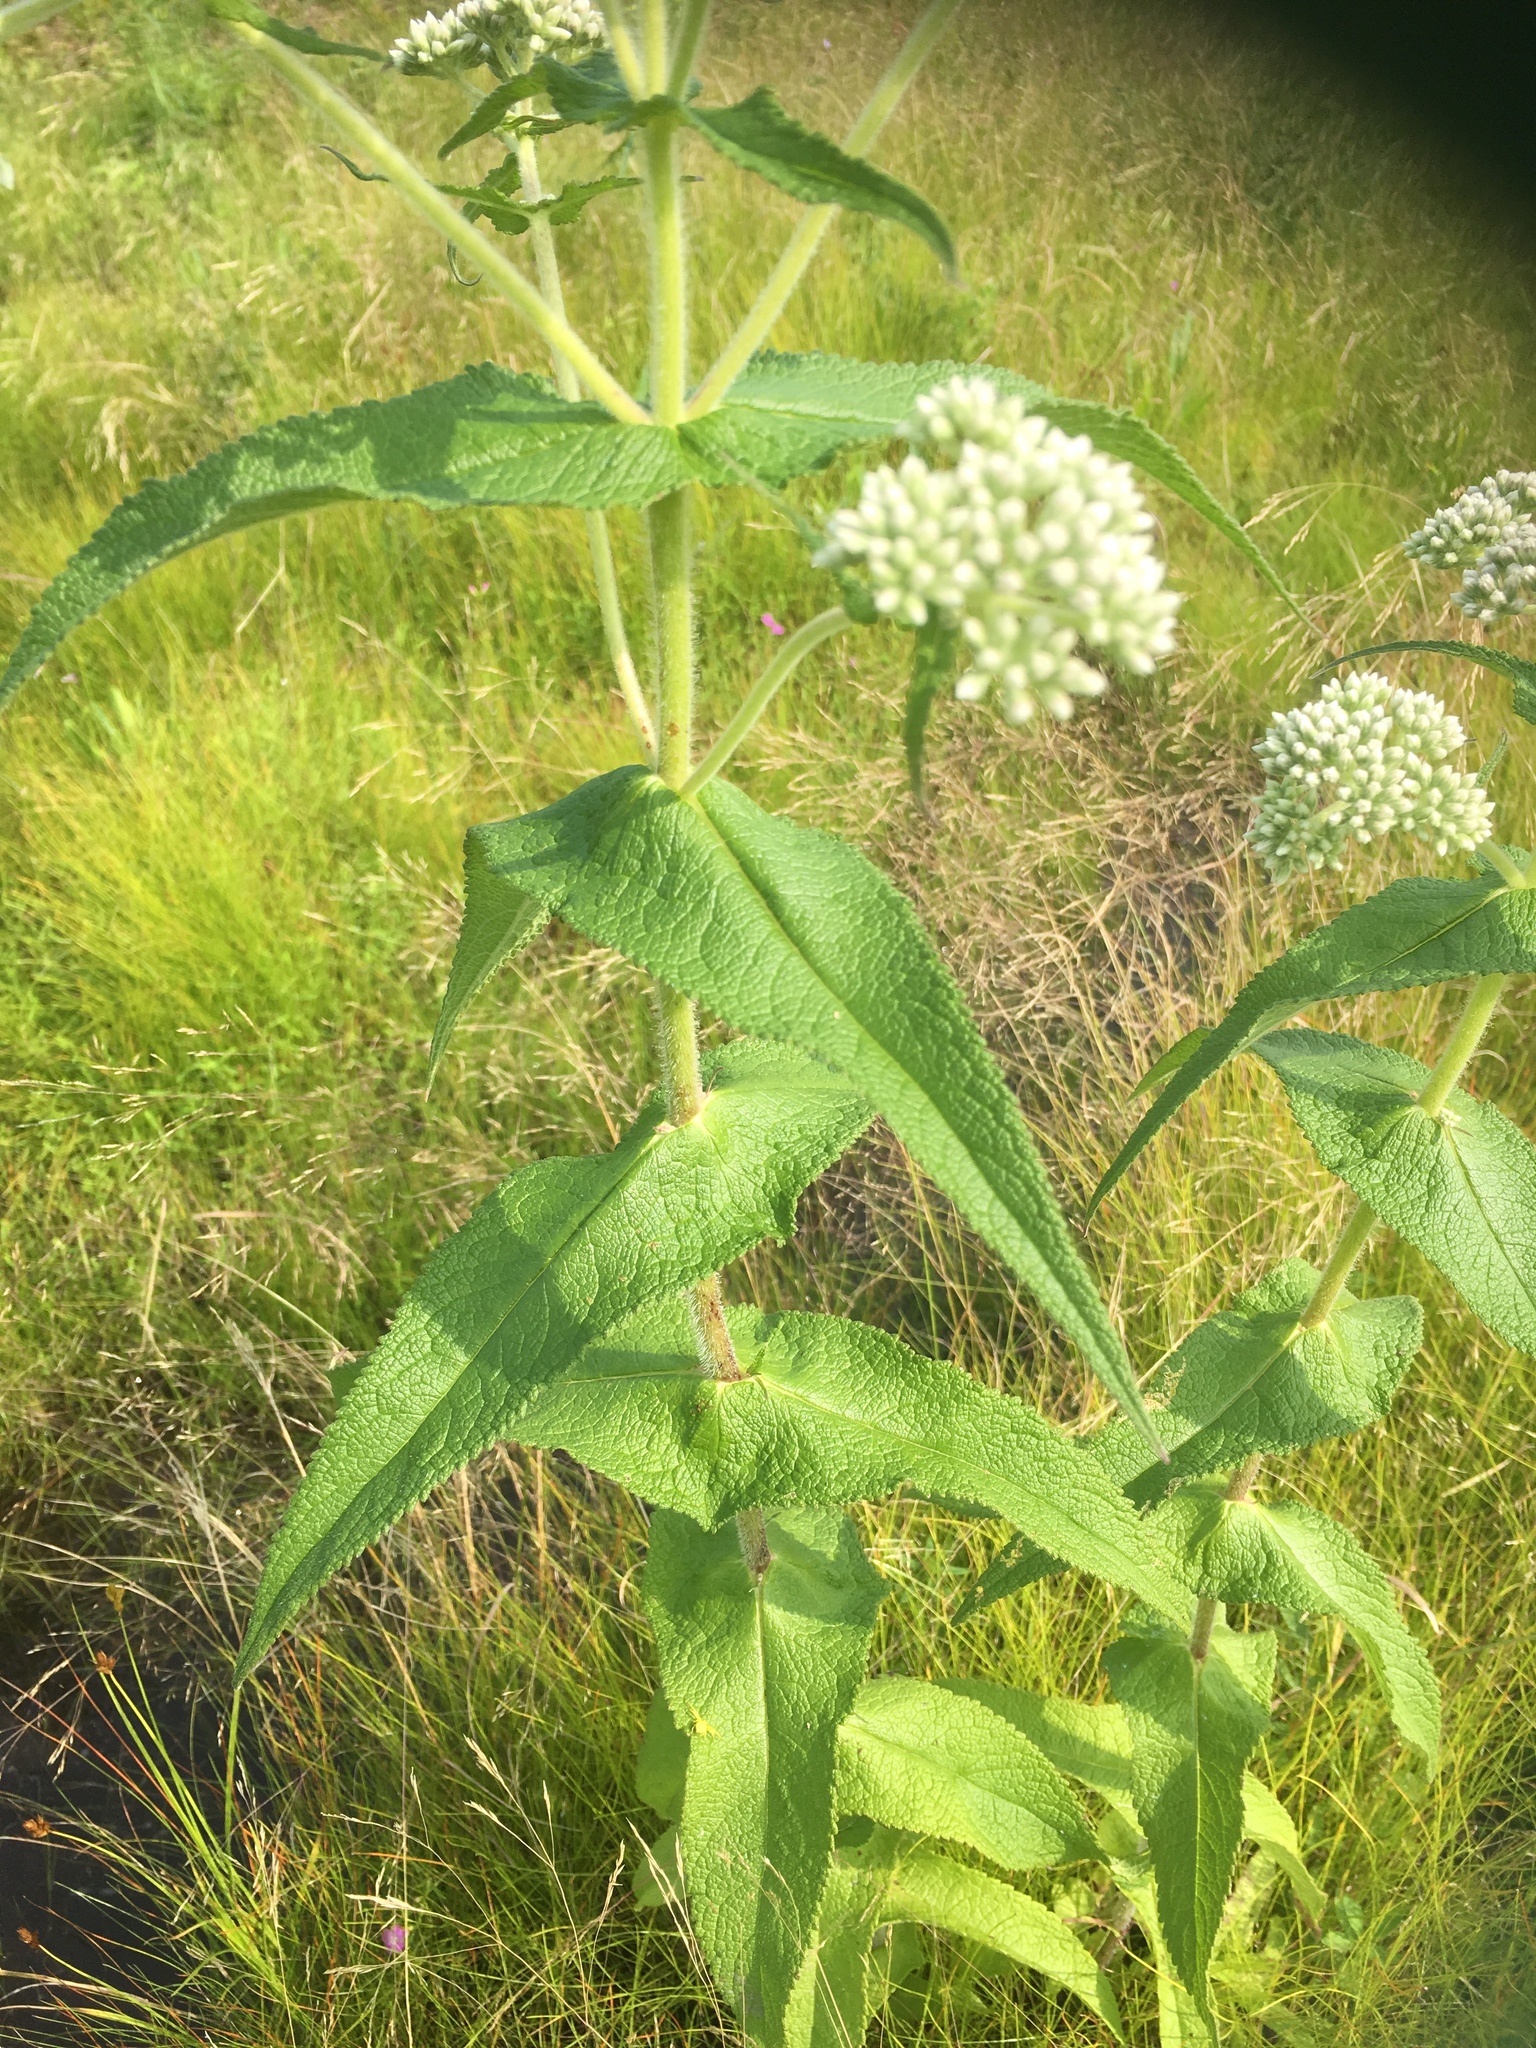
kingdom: Plantae
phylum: Tracheophyta
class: Magnoliopsida
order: Asterales
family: Asteraceae
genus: Eupatorium
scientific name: Eupatorium perfoliatum
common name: Boneset
